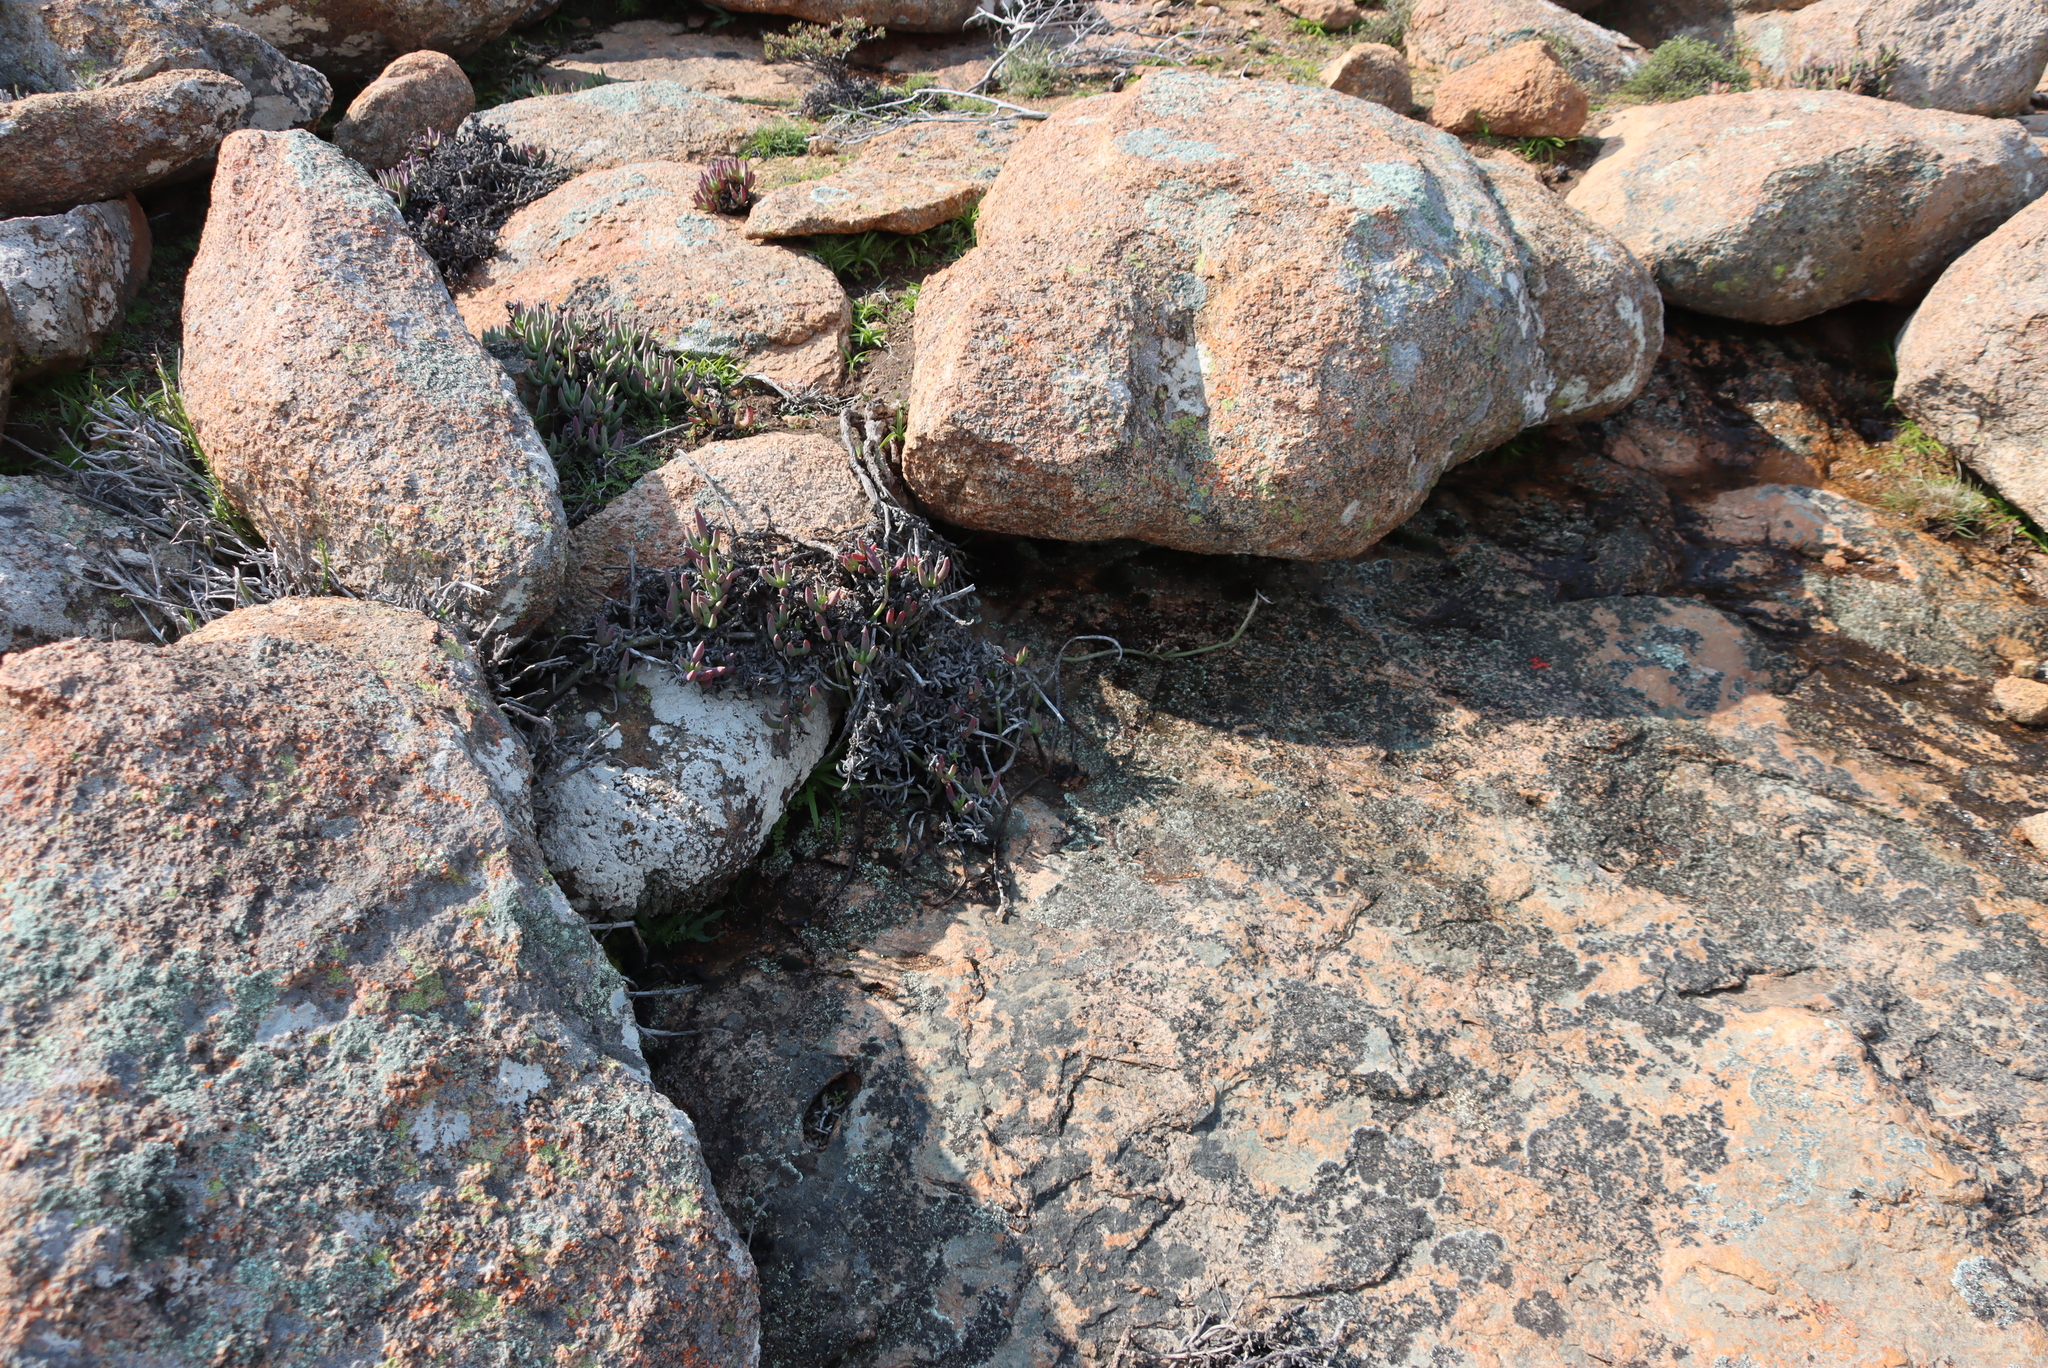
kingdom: Plantae
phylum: Tracheophyta
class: Magnoliopsida
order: Malpighiales
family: Euphorbiaceae
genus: Euphorbia
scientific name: Euphorbia mauritanica
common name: Jackal's-food
